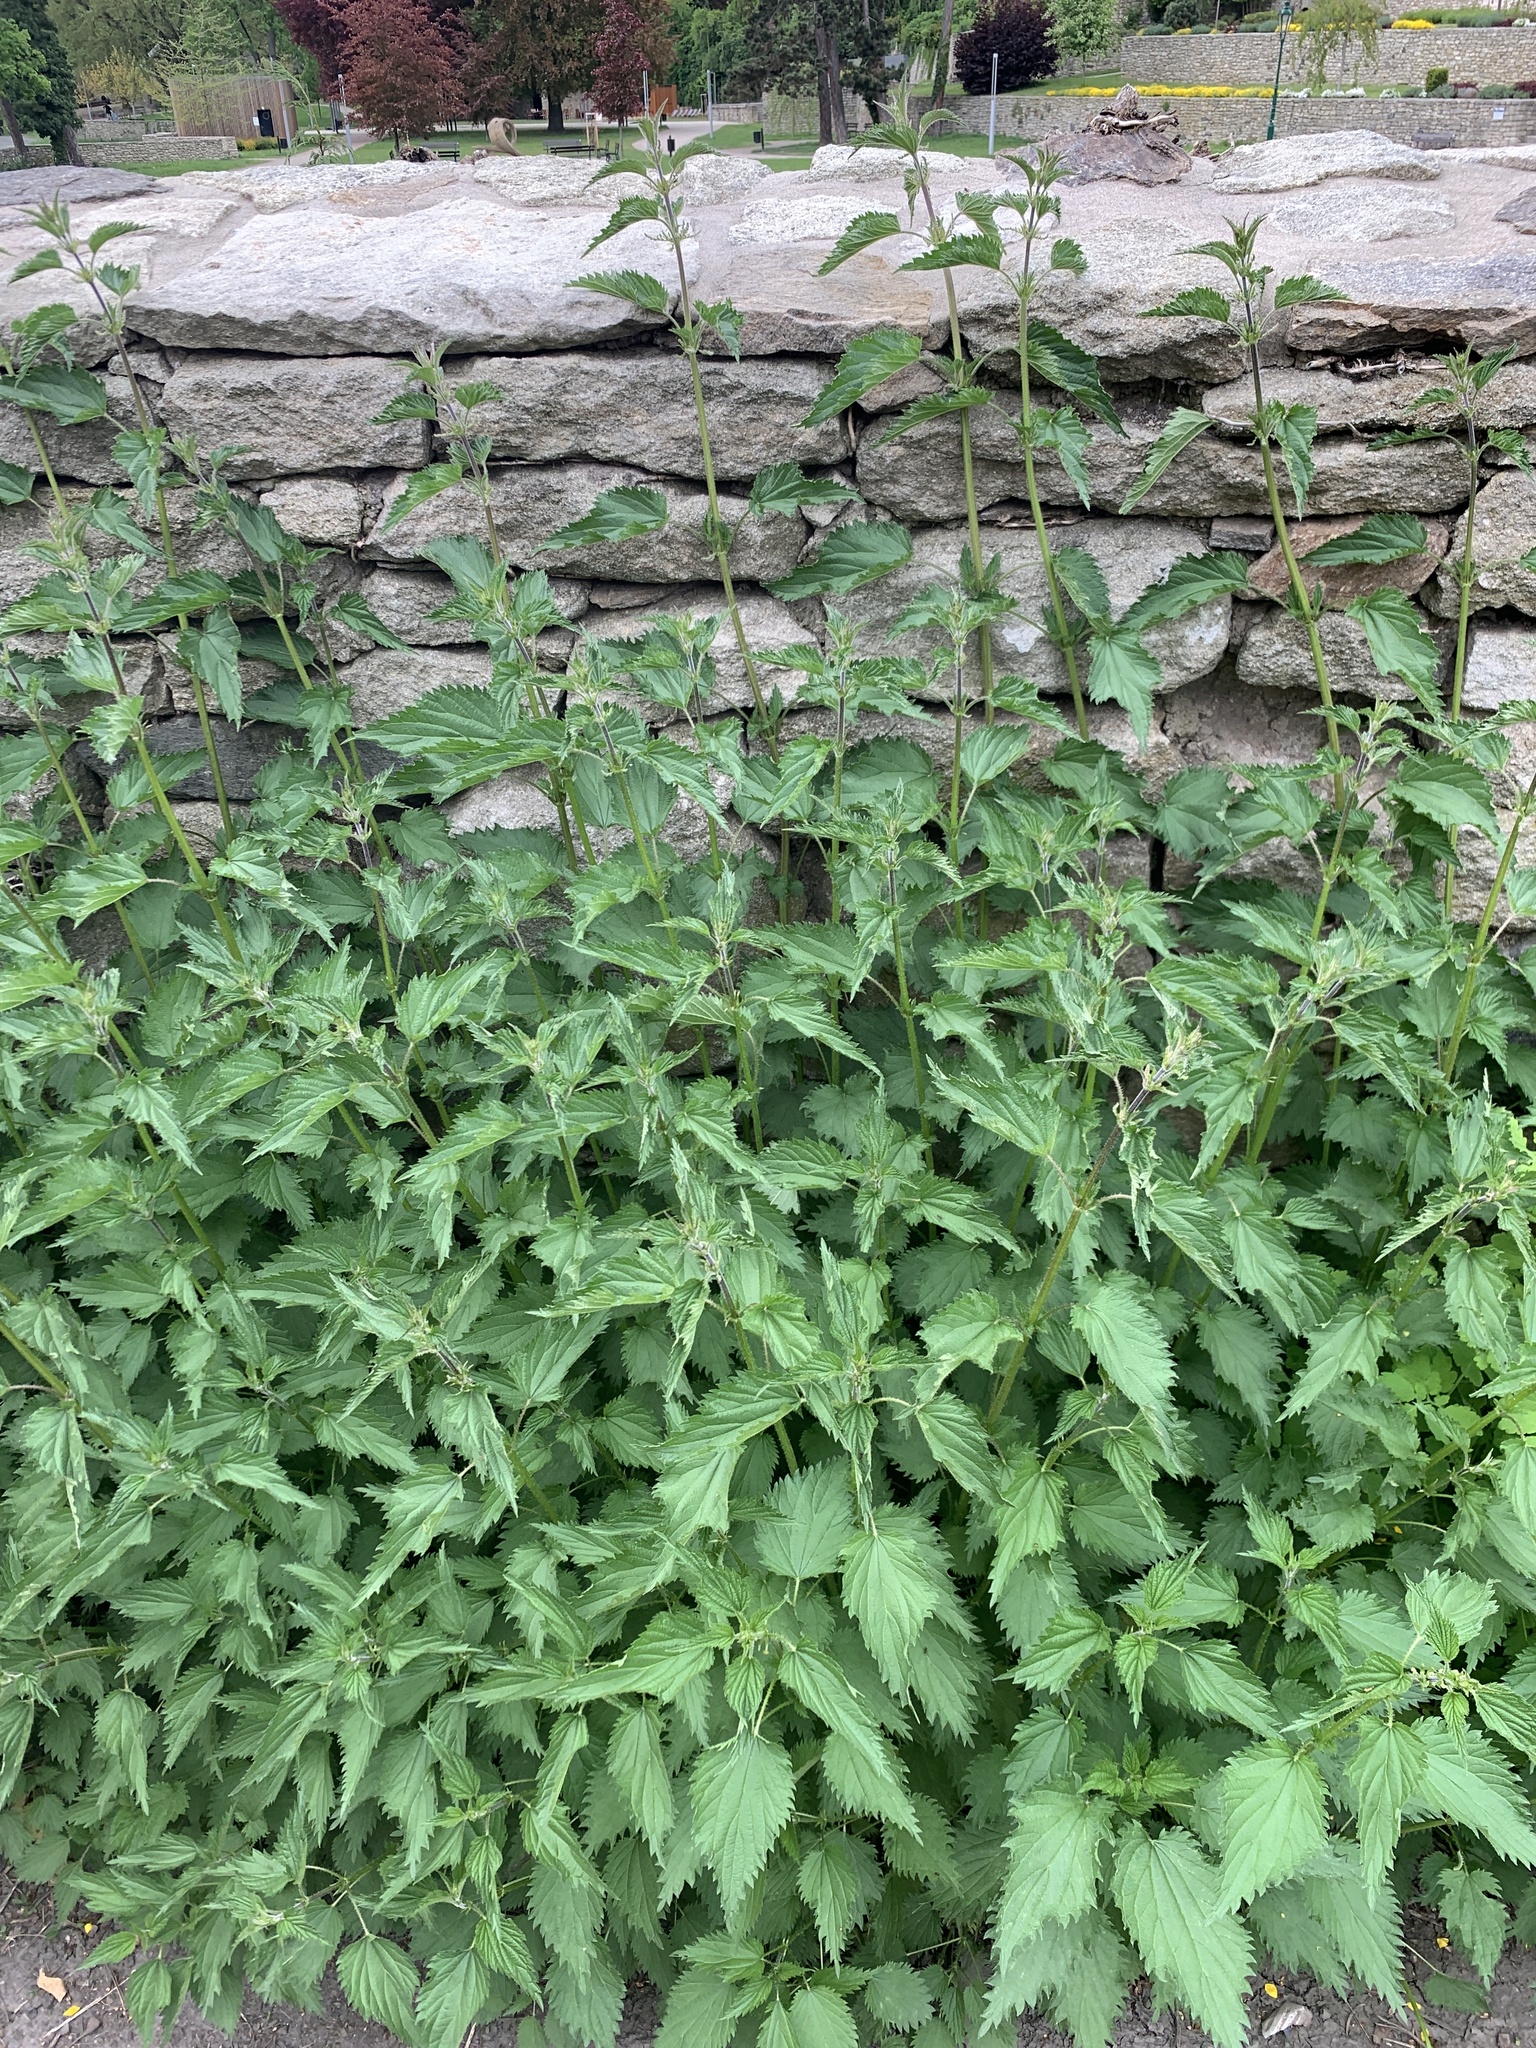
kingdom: Plantae
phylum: Tracheophyta
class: Magnoliopsida
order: Rosales
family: Urticaceae
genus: Urtica
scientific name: Urtica dioica
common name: Common nettle
